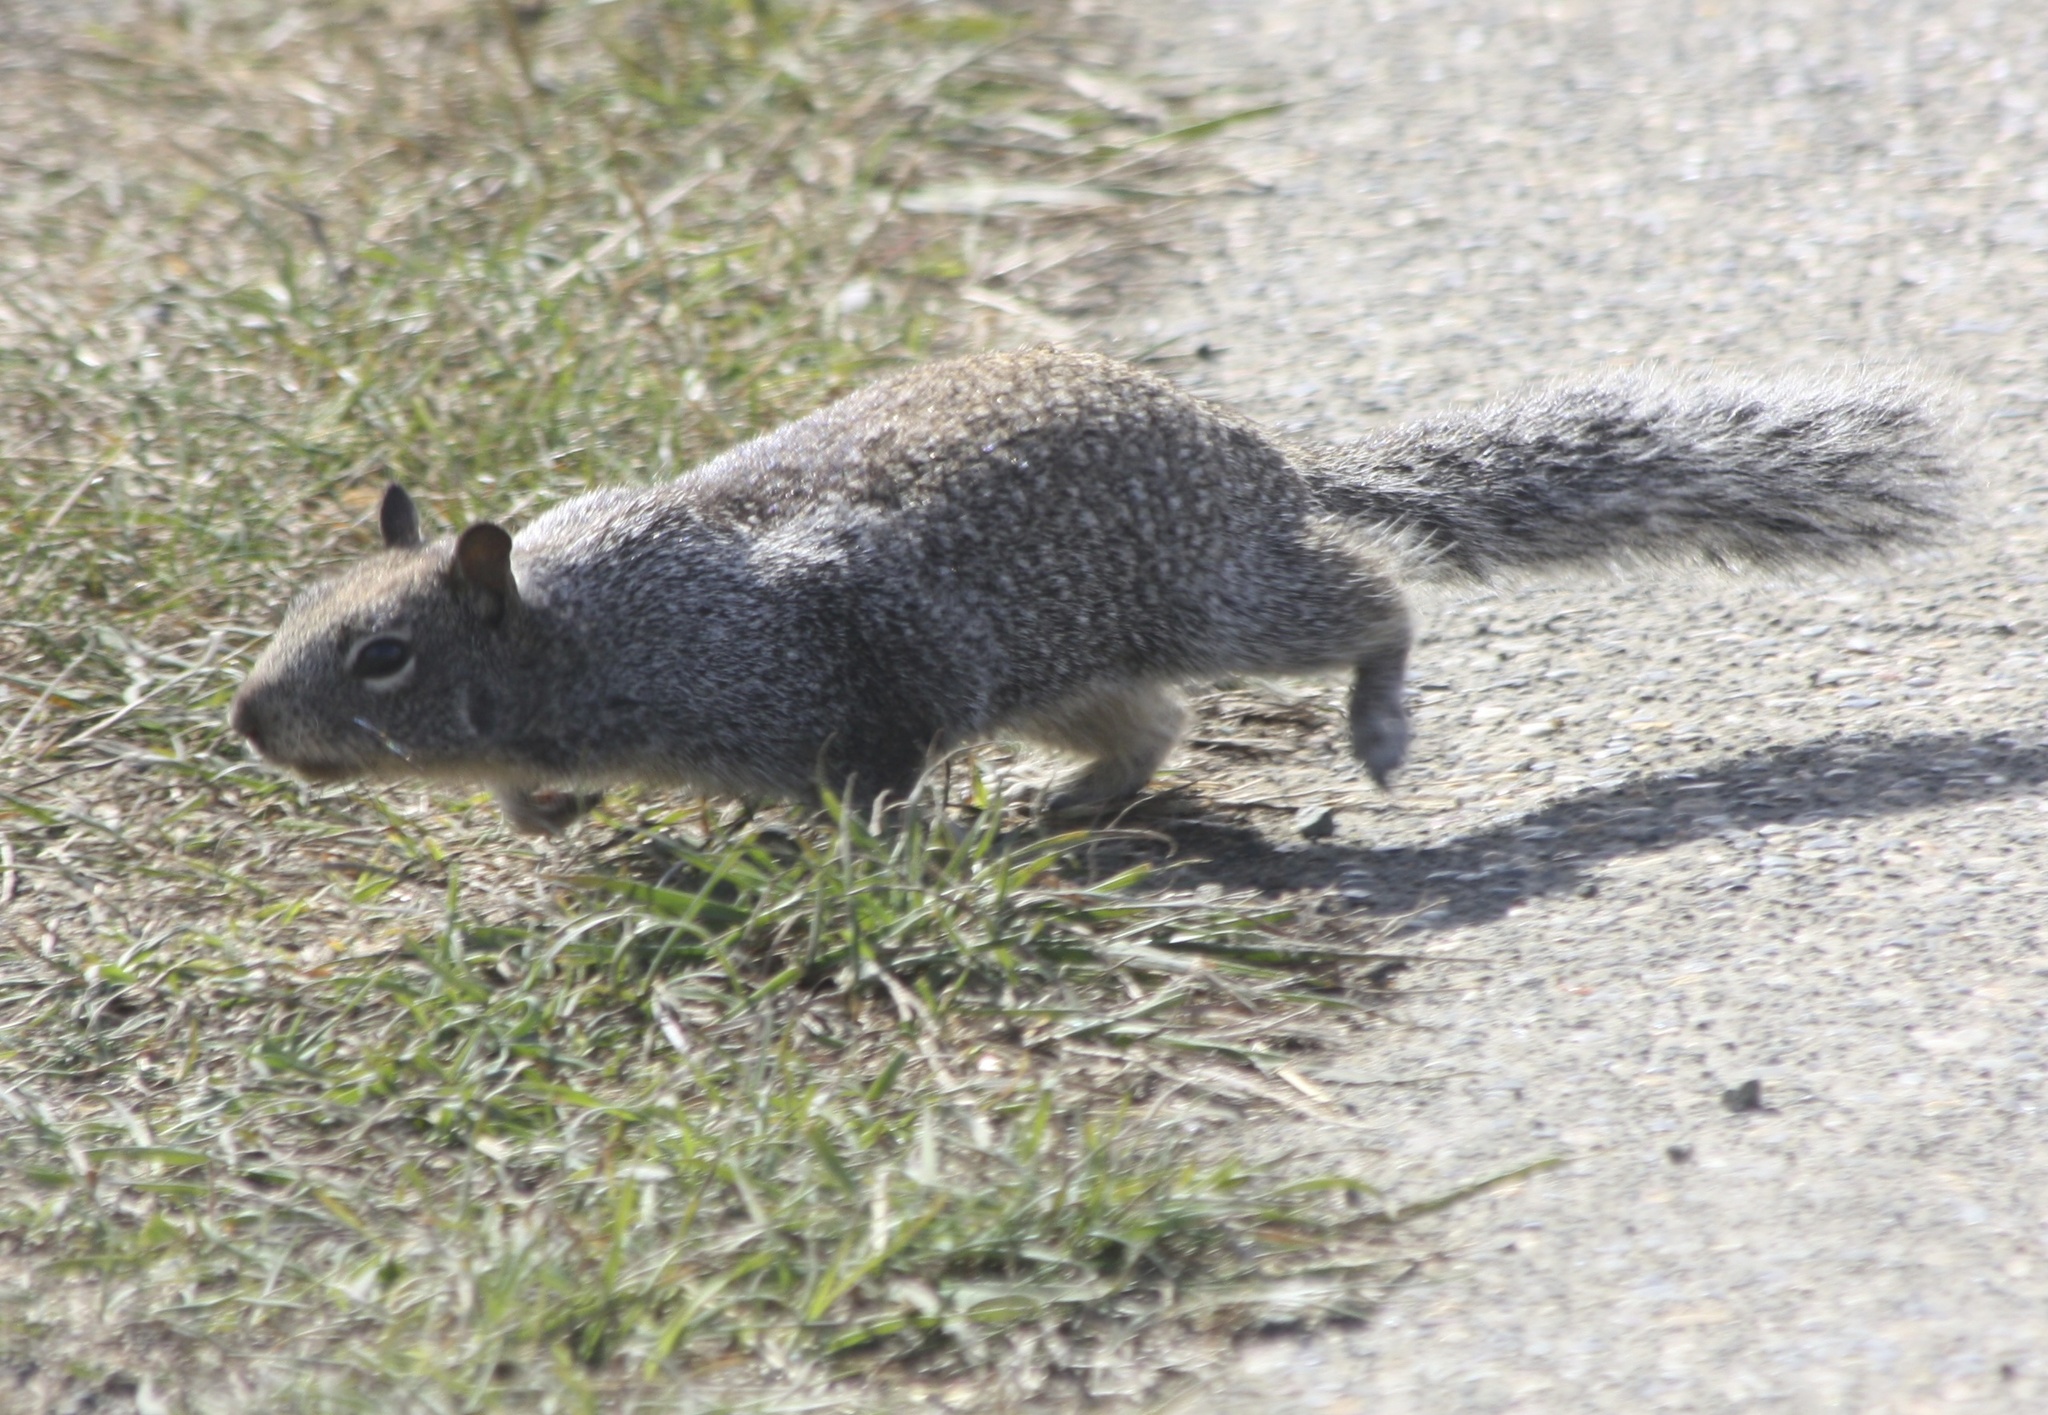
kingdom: Animalia
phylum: Chordata
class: Mammalia
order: Rodentia
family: Sciuridae
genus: Otospermophilus
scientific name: Otospermophilus beecheyi
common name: California ground squirrel
